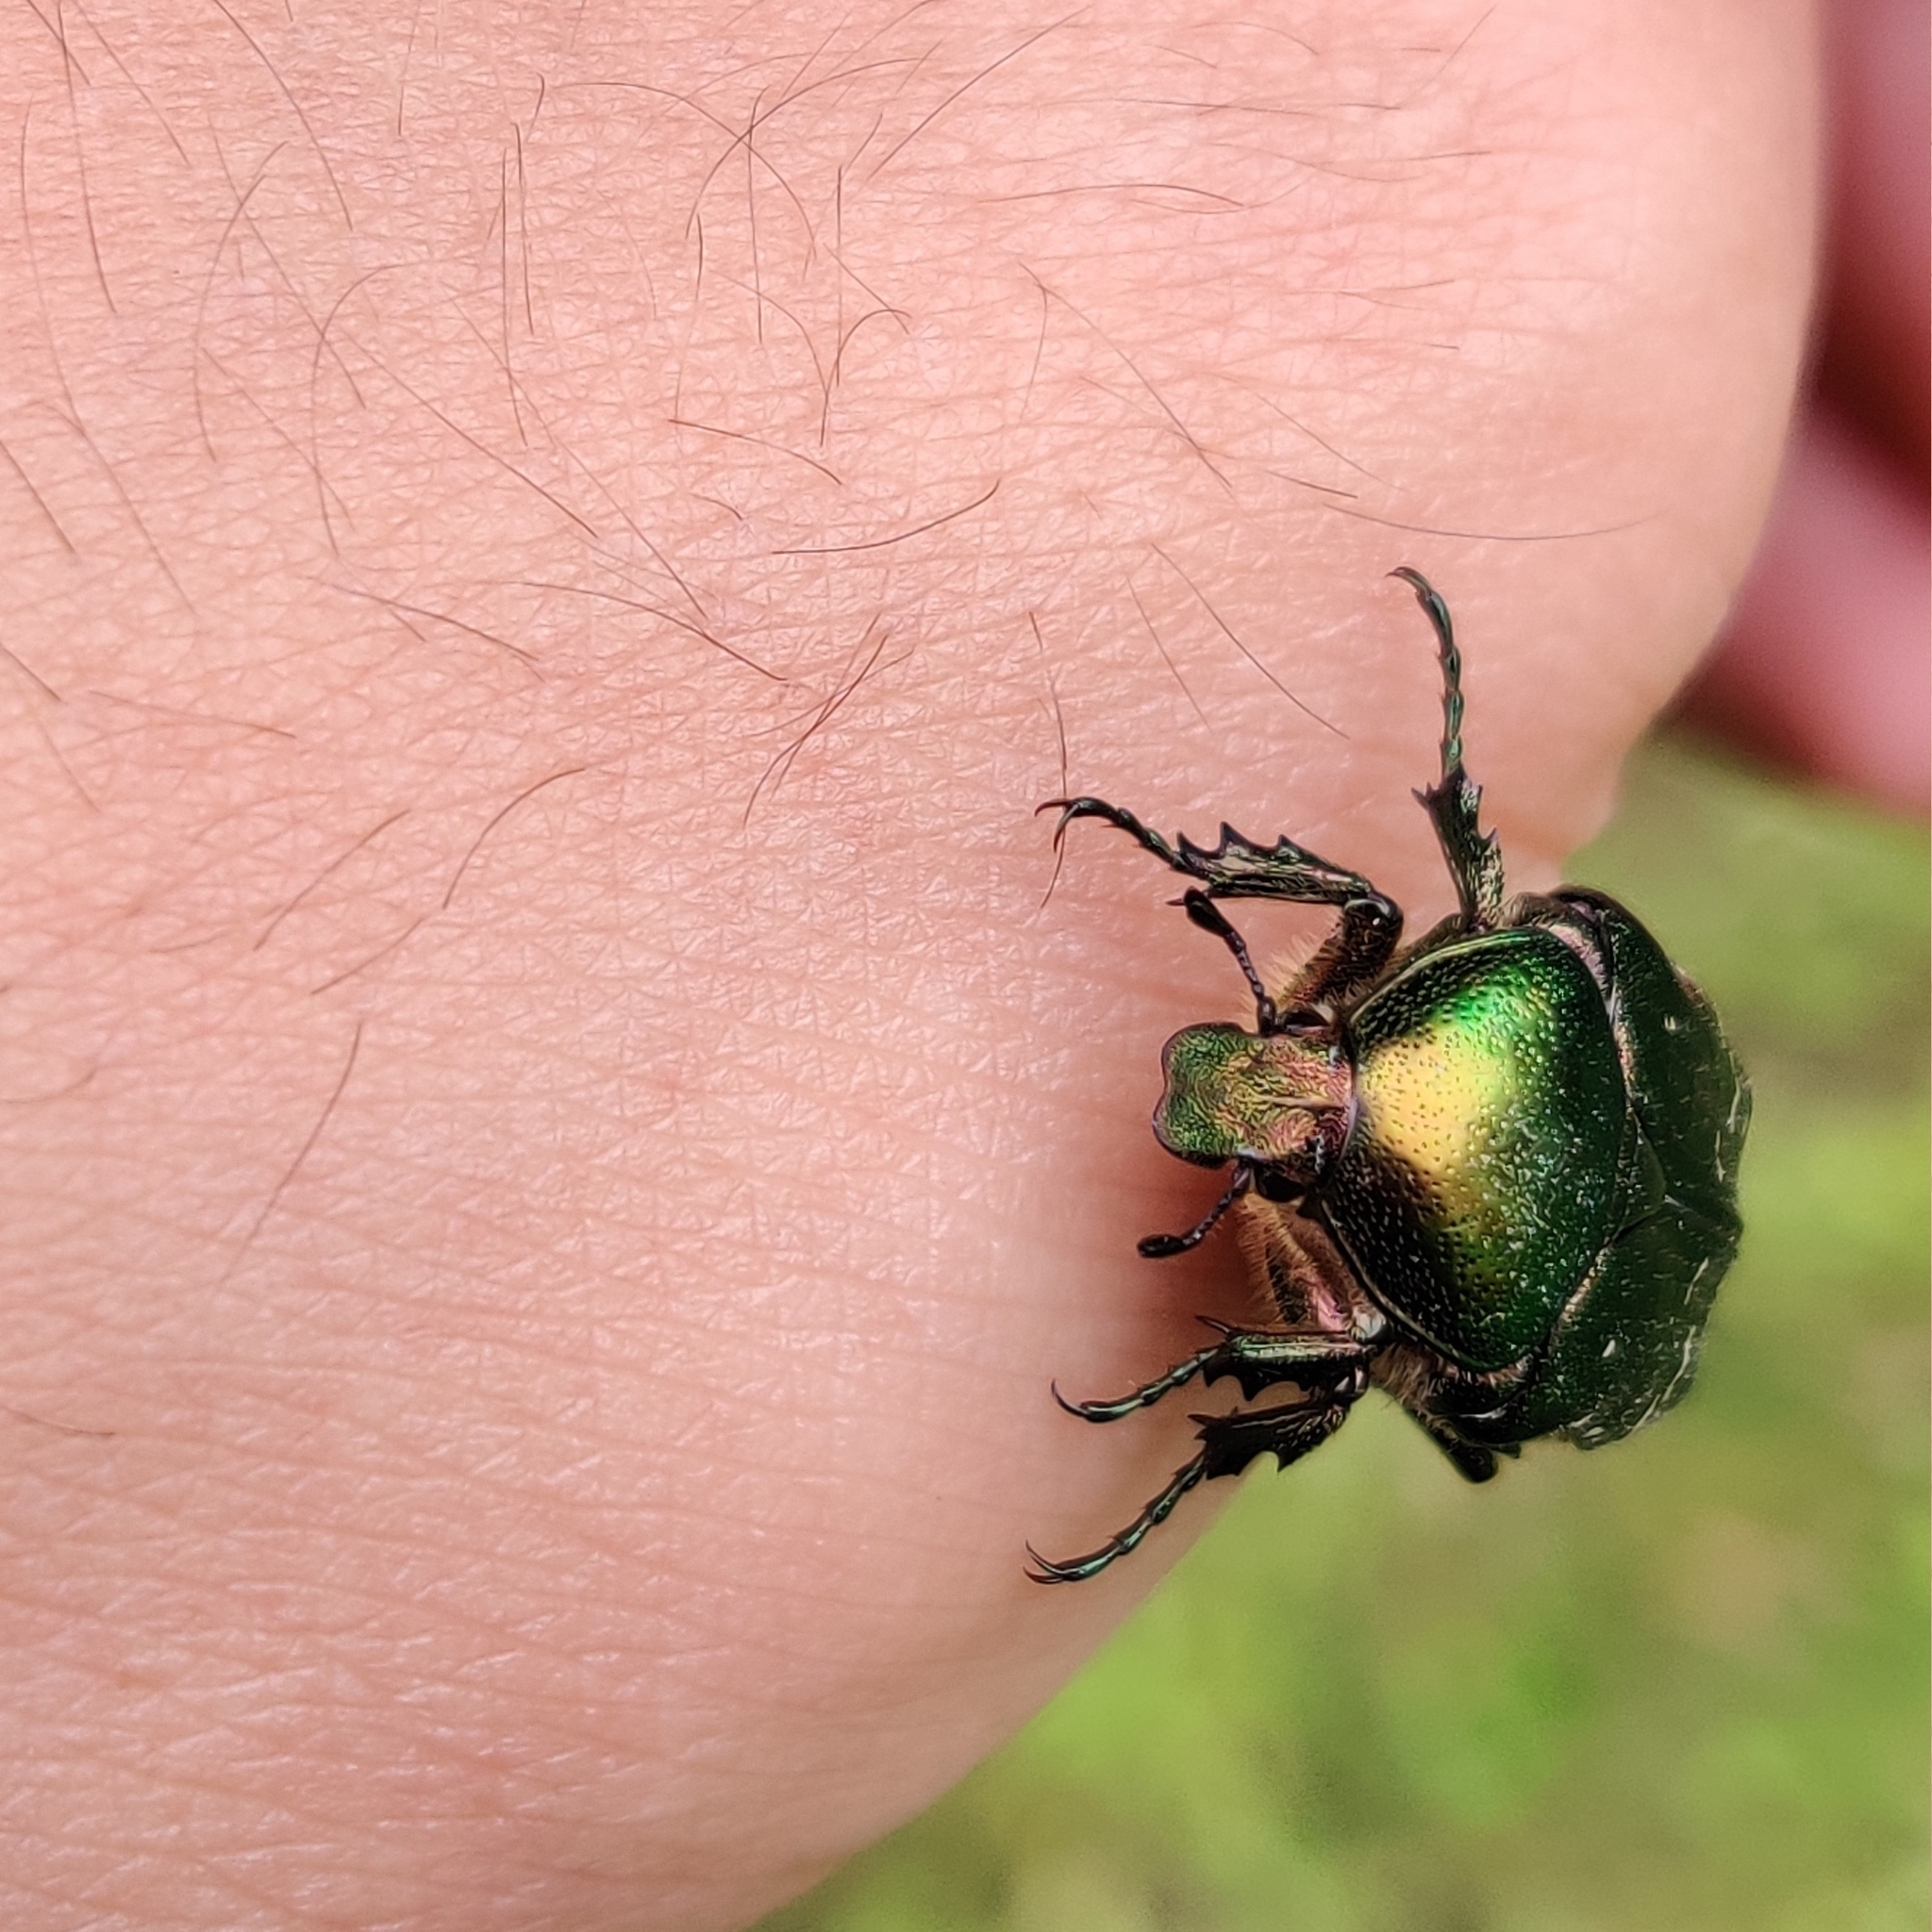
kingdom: Animalia
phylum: Arthropoda
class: Insecta
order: Coleoptera
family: Scarabaeidae
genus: Cetonia
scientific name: Cetonia aurata
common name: Rose chafer
